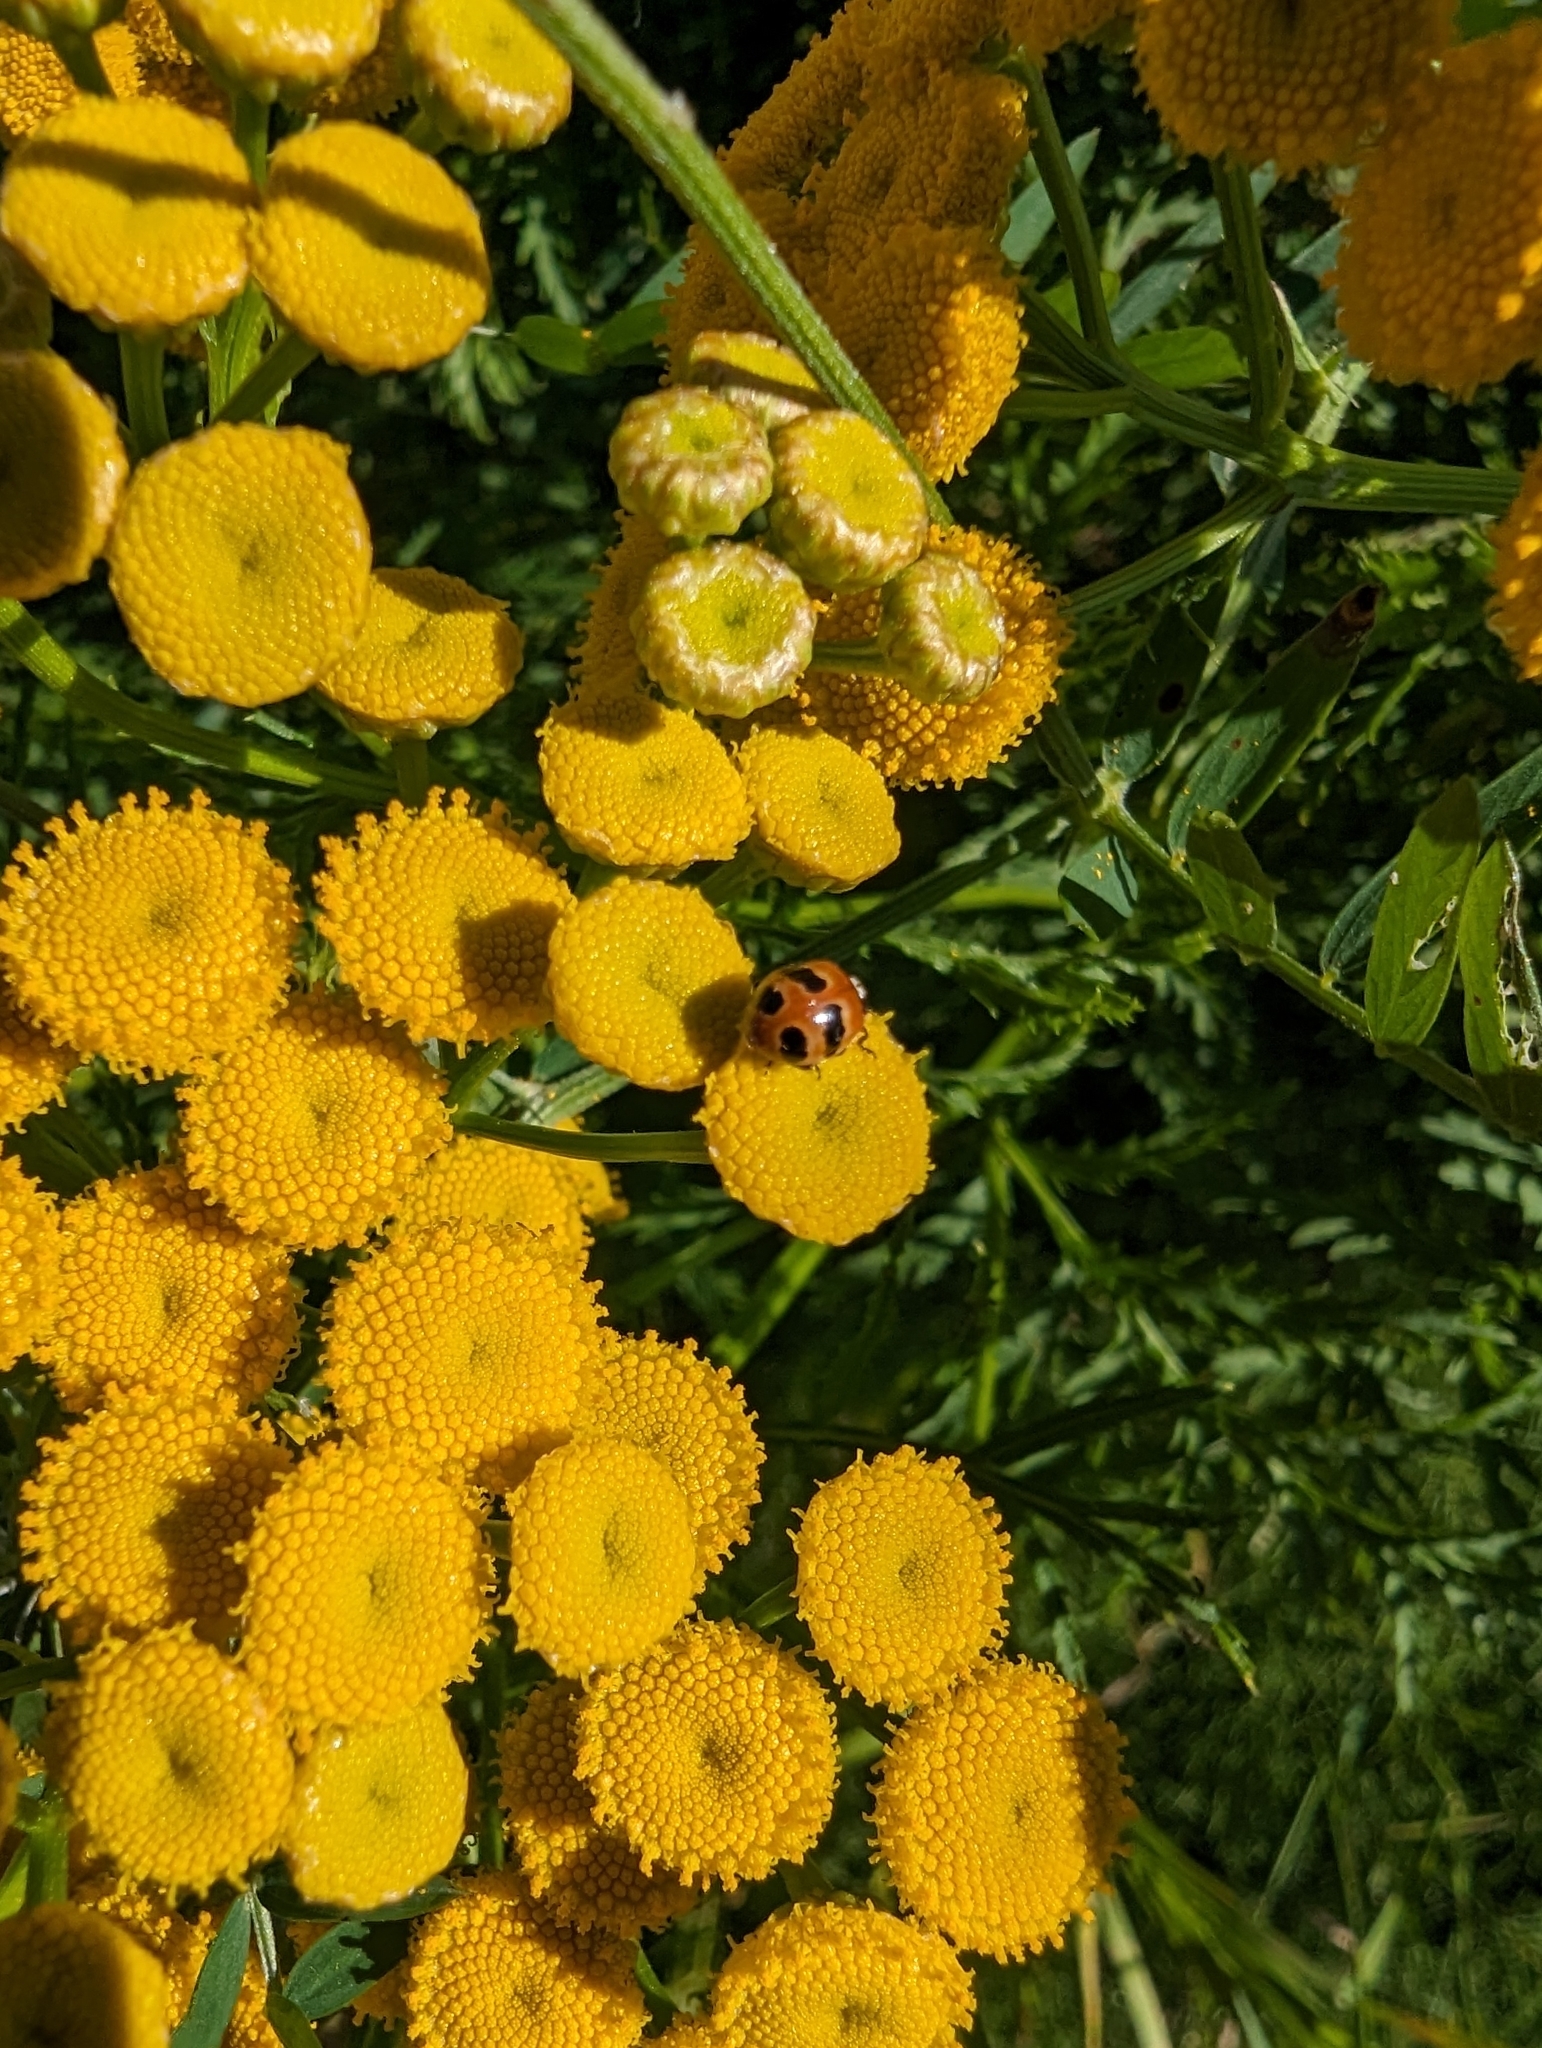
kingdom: Animalia
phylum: Arthropoda
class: Insecta
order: Coleoptera
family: Coccinellidae
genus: Adalia
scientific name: Adalia bipunctata
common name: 2-spot ladybird
